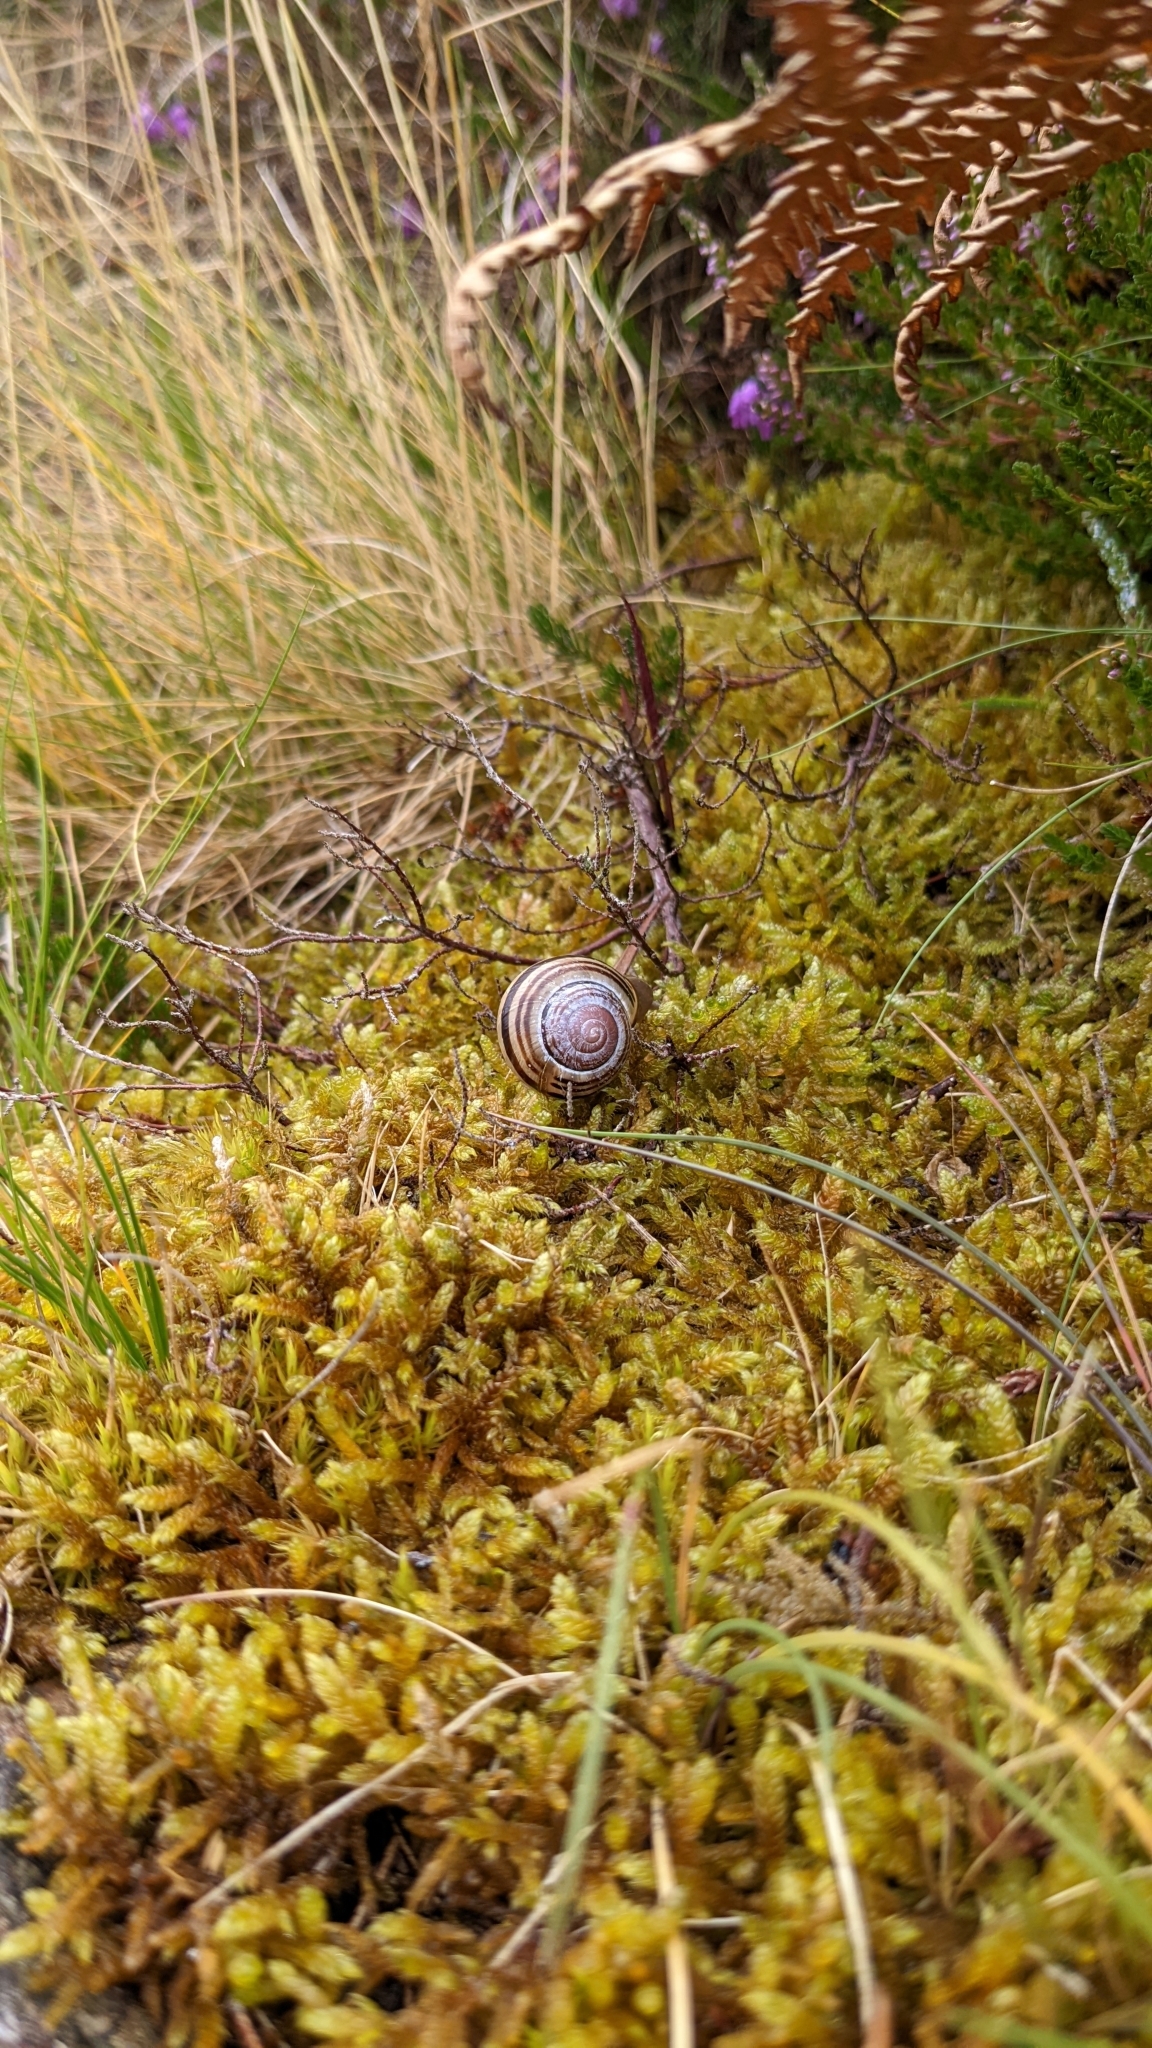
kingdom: Animalia
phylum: Mollusca
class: Gastropoda
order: Stylommatophora
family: Helicidae
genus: Cepaea
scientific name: Cepaea nemoralis
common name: Grovesnail
